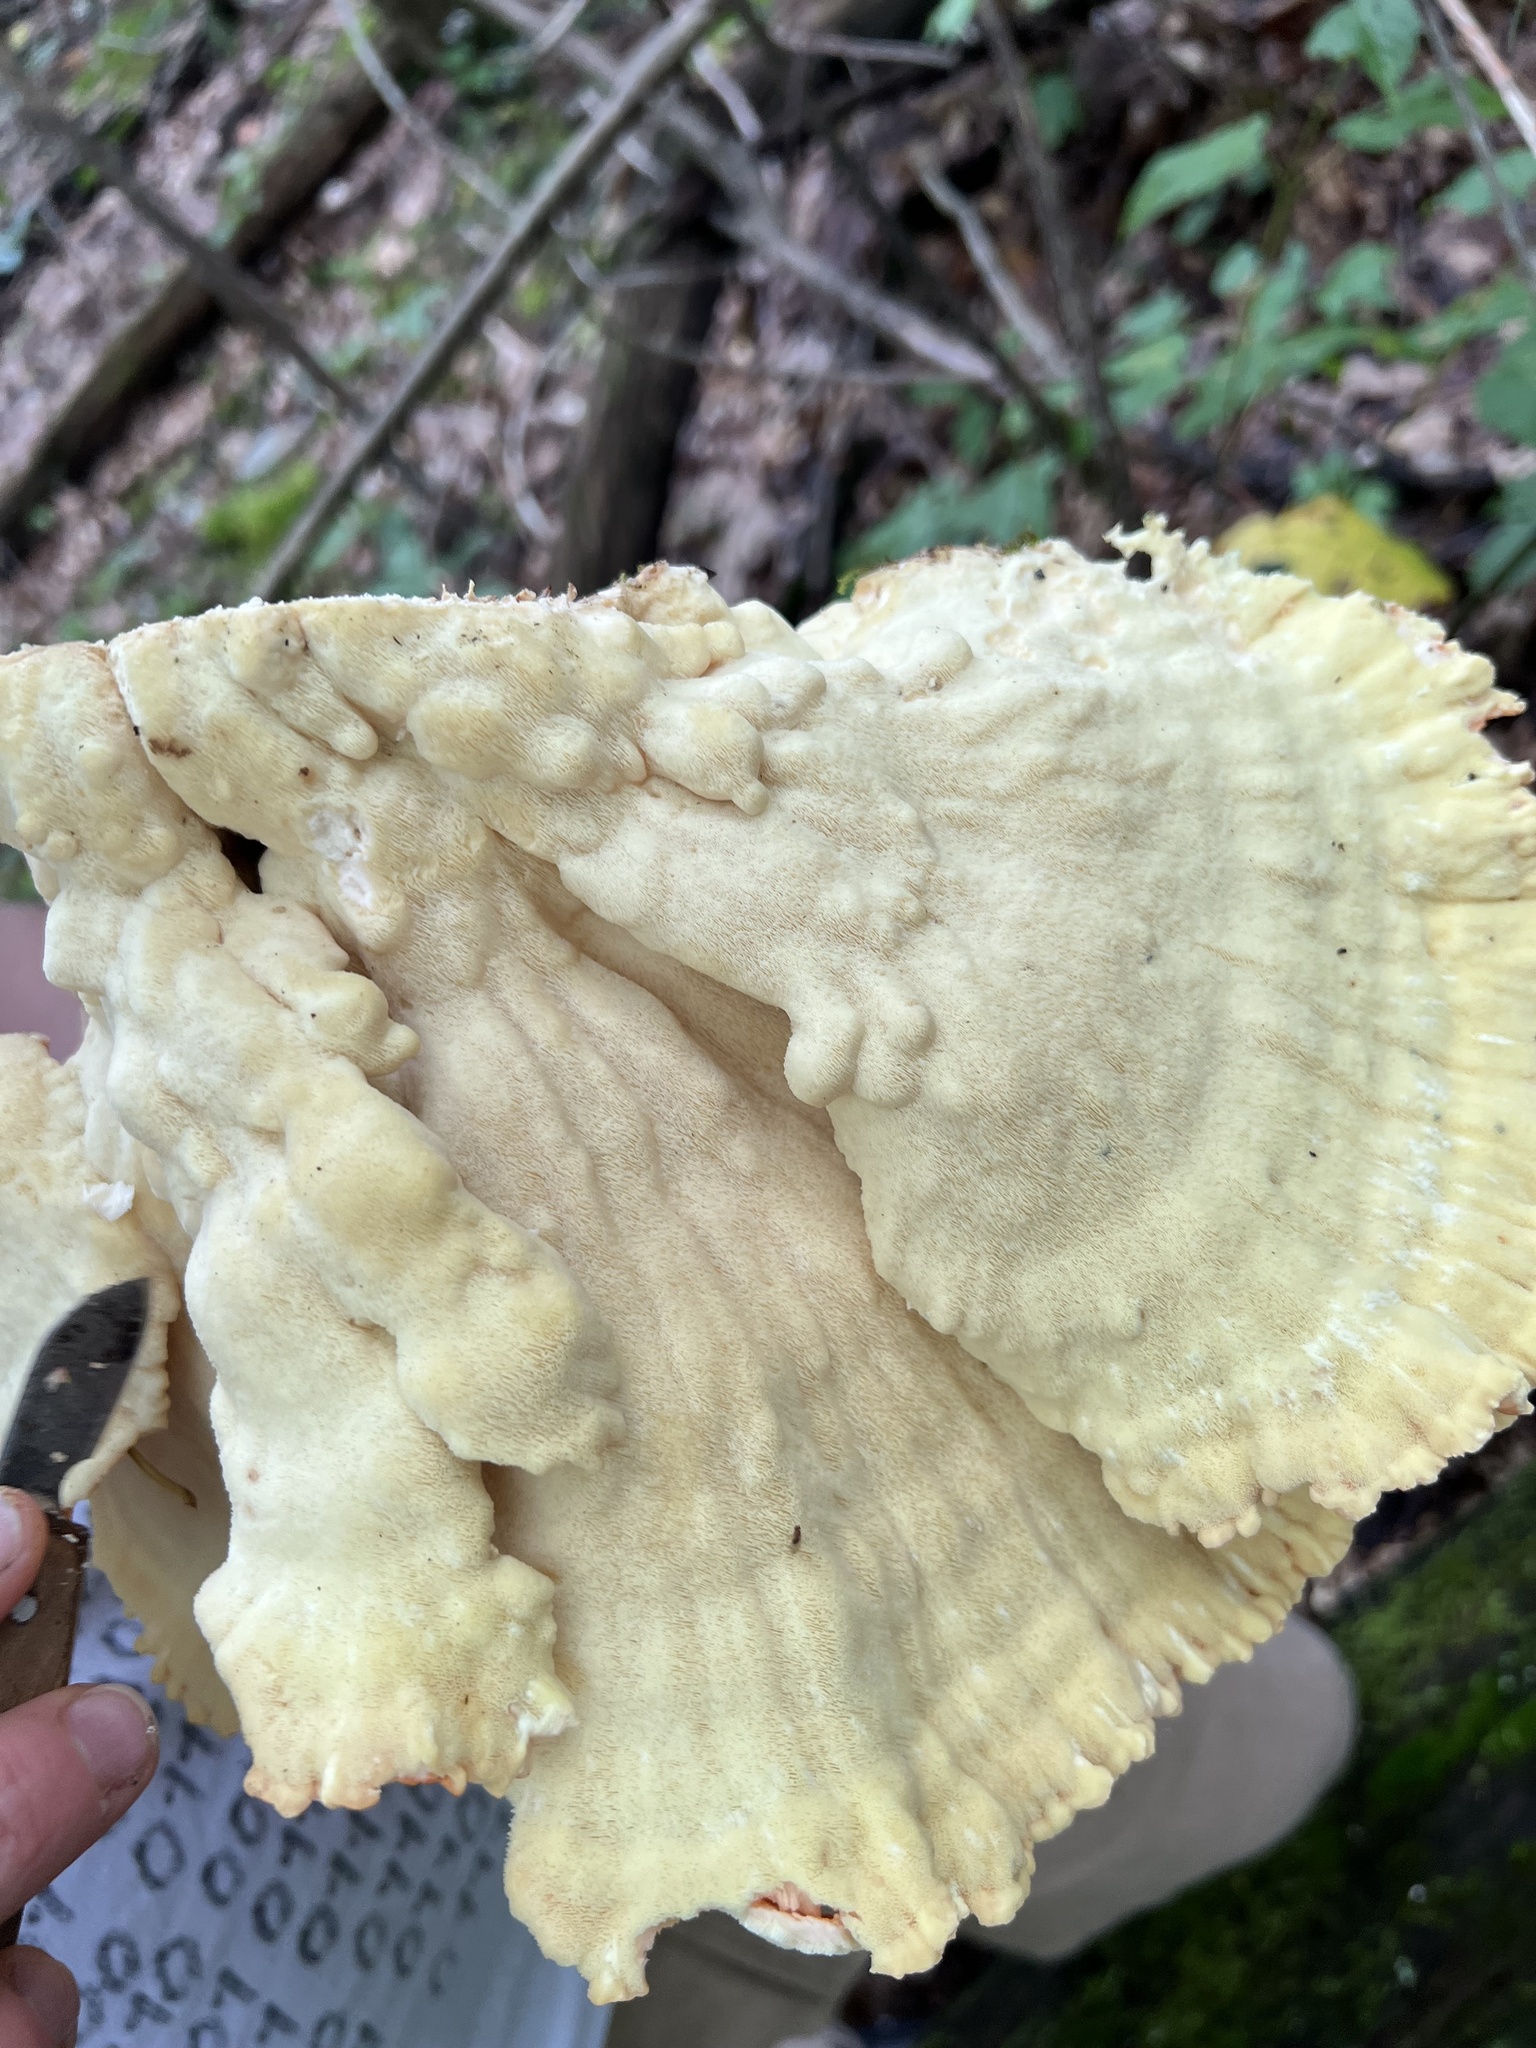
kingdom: Fungi
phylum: Basidiomycota
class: Agaricomycetes
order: Polyporales
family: Laetiporaceae
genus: Laetiporus
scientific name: Laetiporus sulphureus
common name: Chicken of the woods
